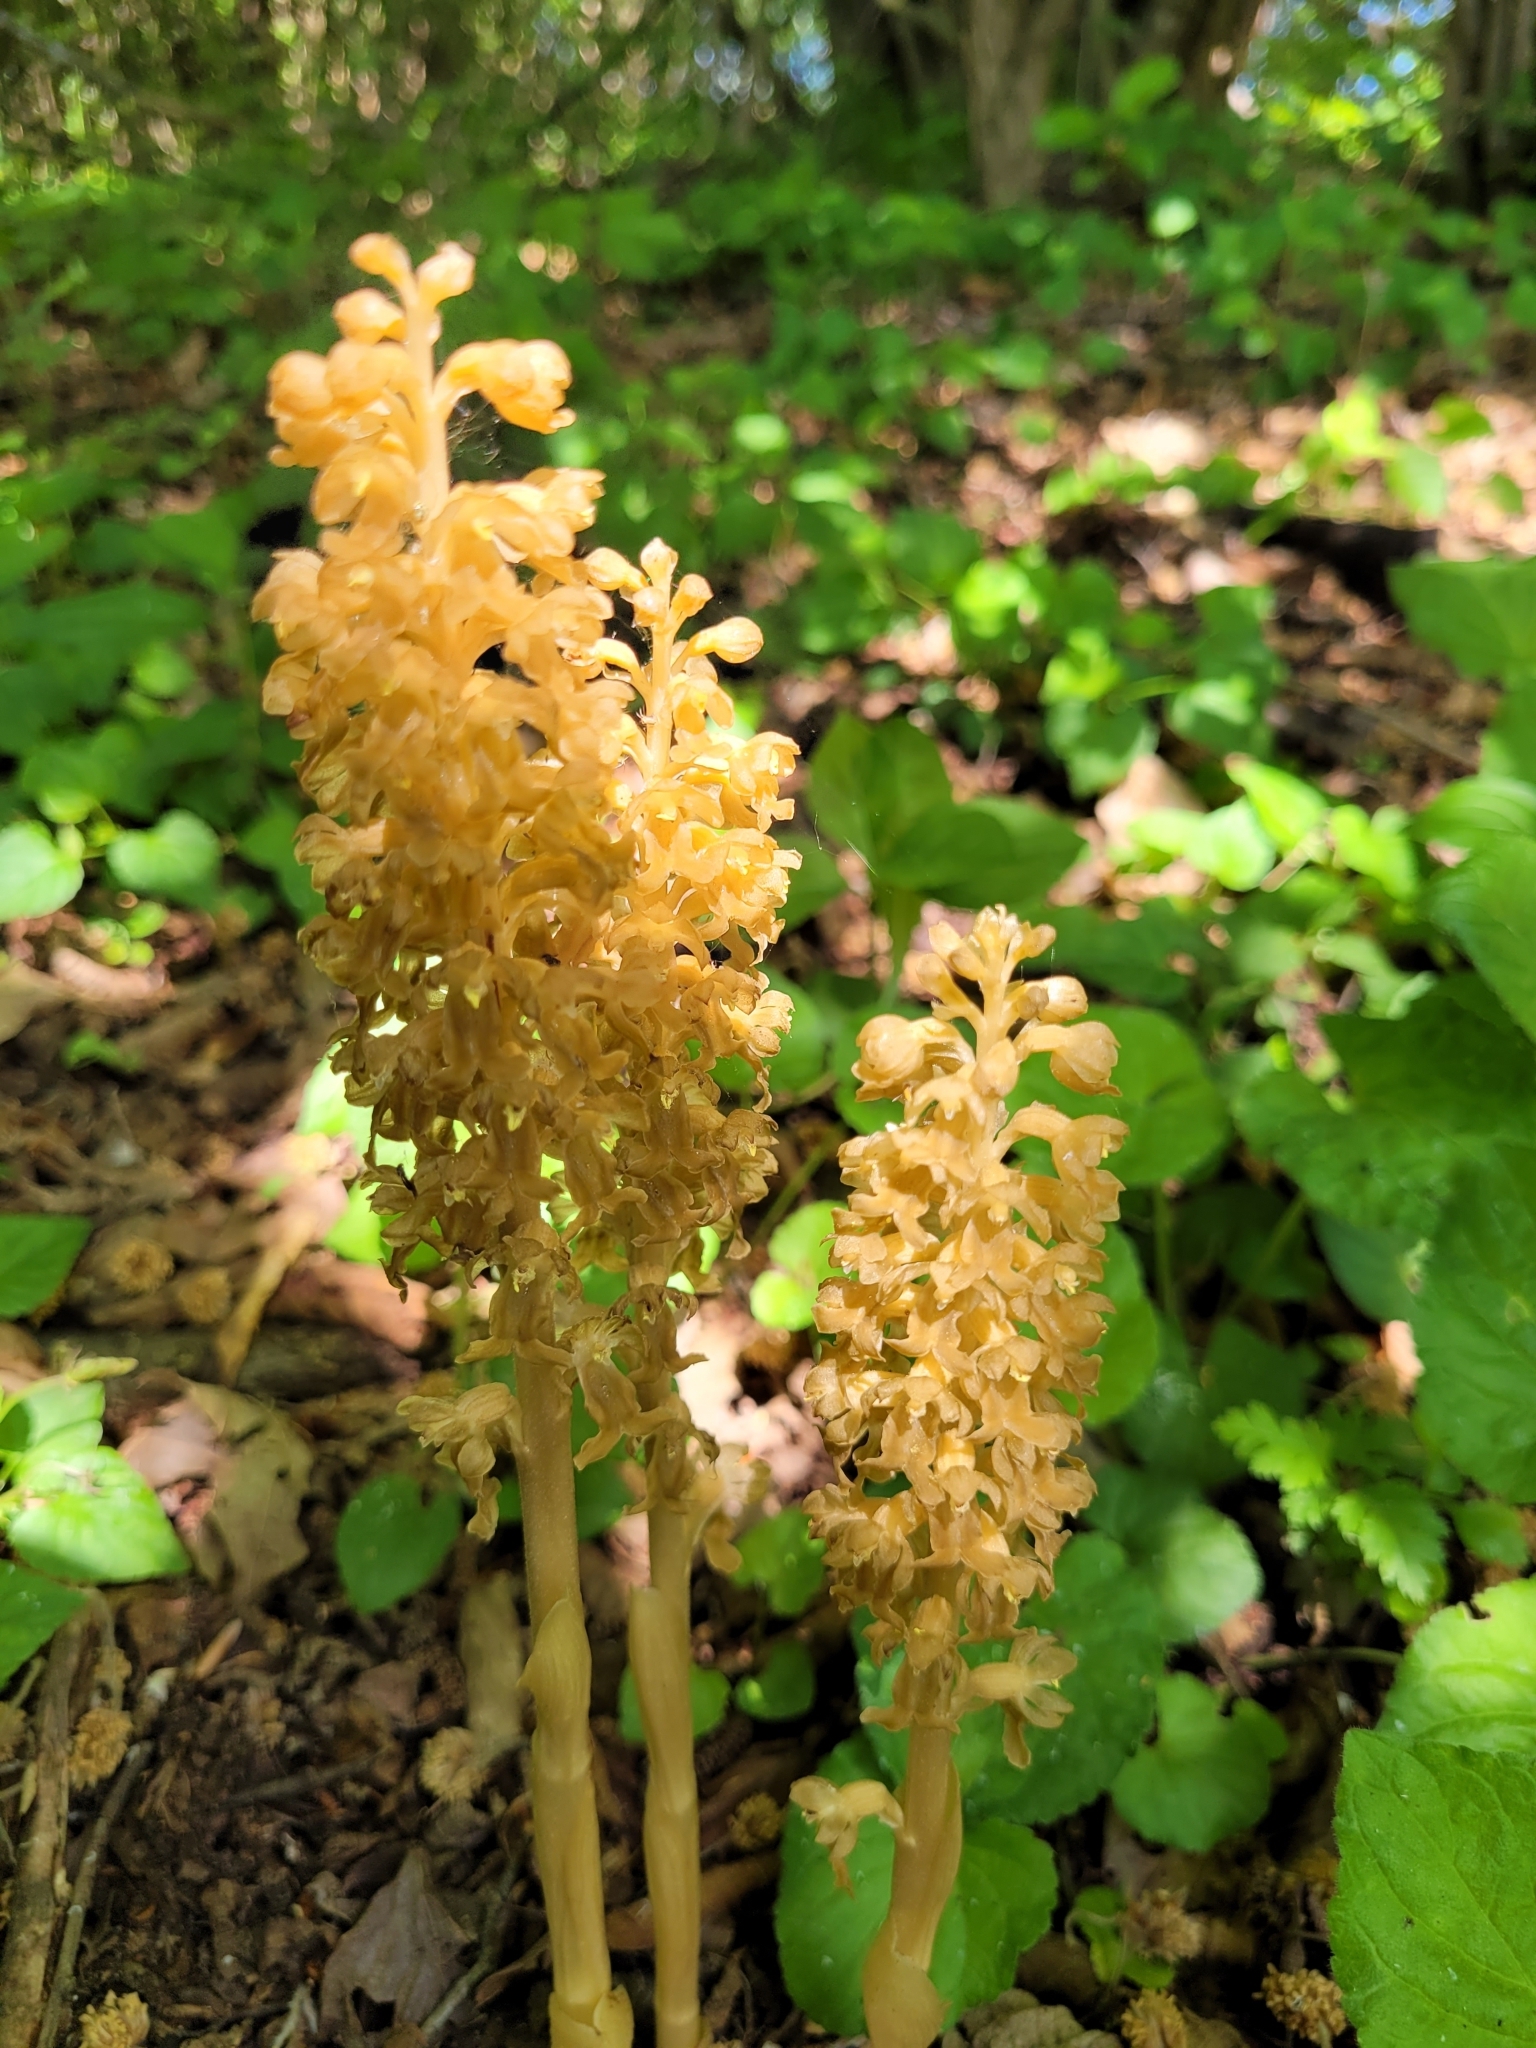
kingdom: Plantae
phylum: Tracheophyta
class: Liliopsida
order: Asparagales
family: Orchidaceae
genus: Neottia
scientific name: Neottia nidus-avis
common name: Bird's-nest orchid
